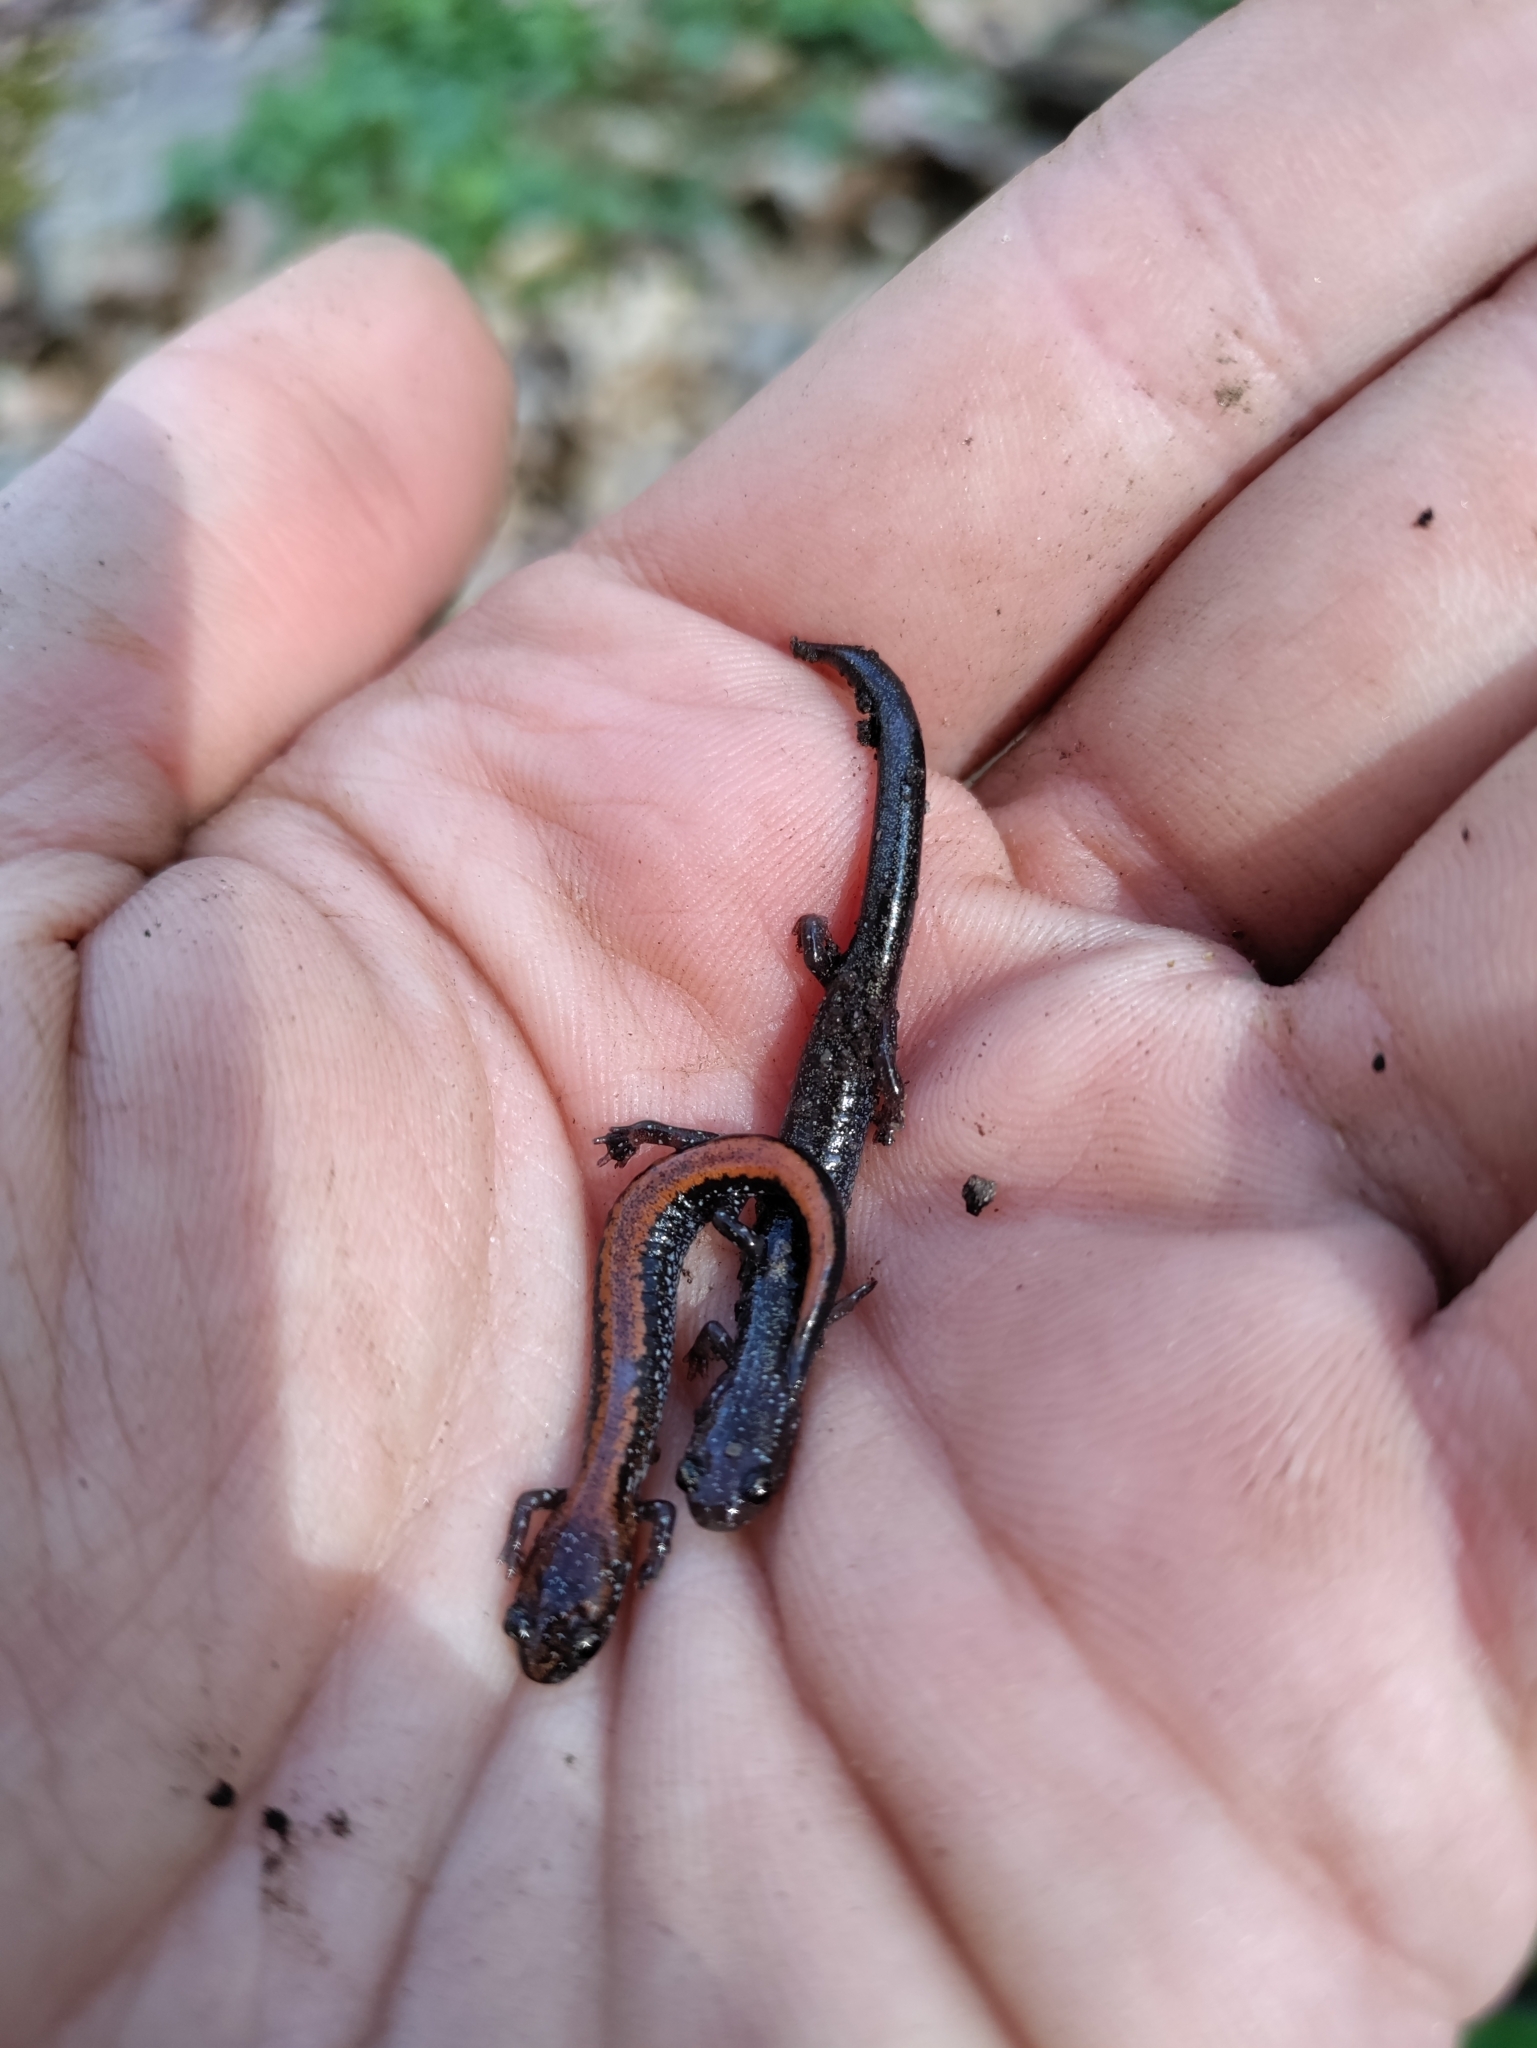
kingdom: Animalia
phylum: Chordata
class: Amphibia
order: Caudata
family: Plethodontidae
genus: Plethodon
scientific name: Plethodon cinereus
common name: Redback salamander
